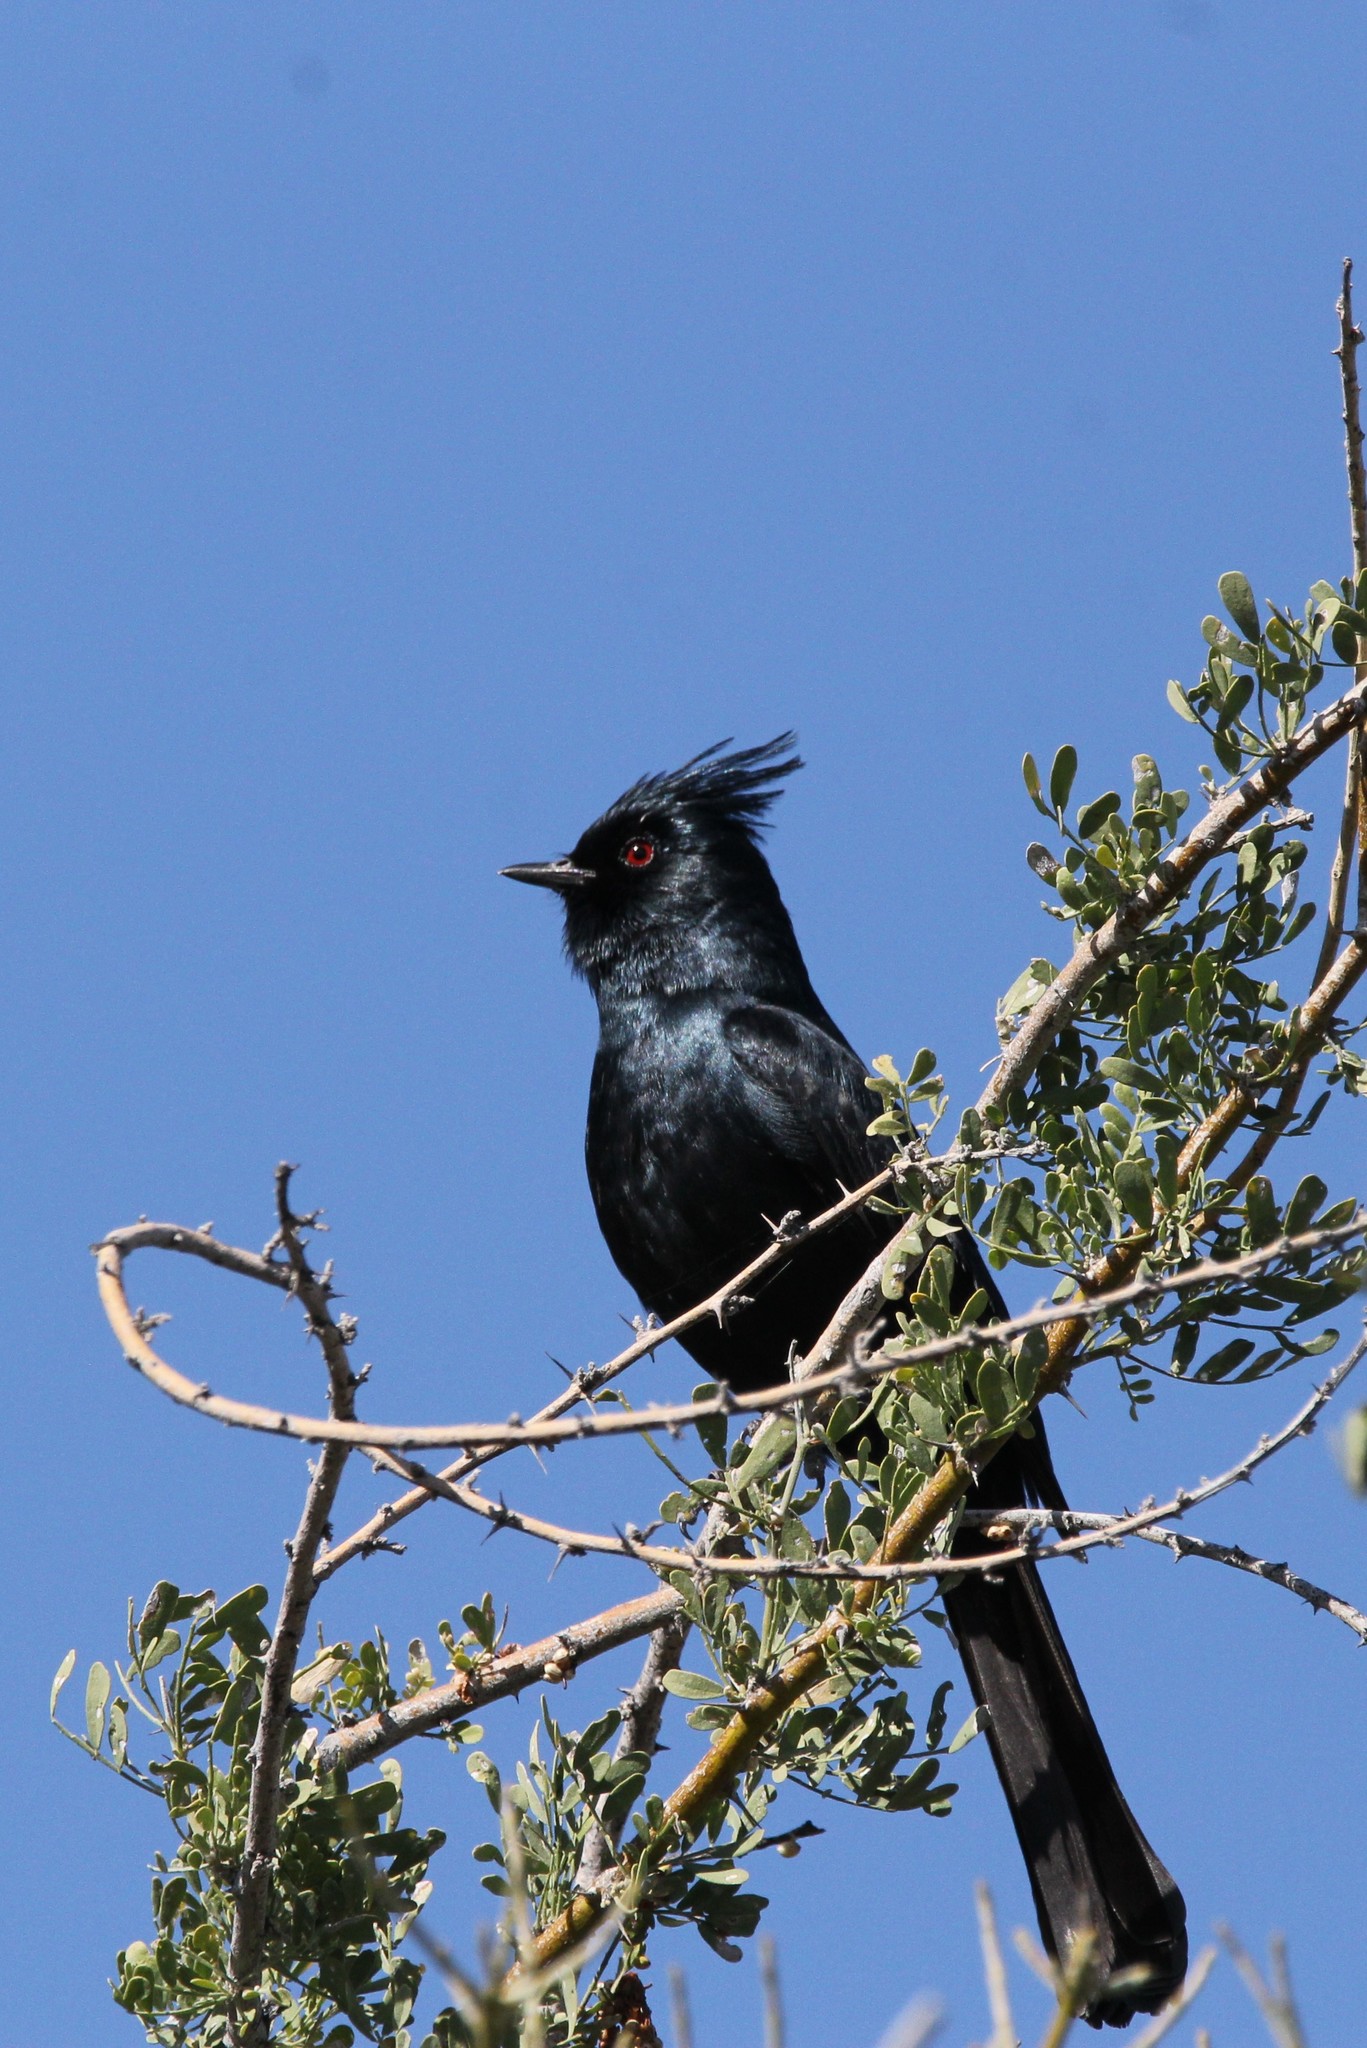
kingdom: Animalia
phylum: Chordata
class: Aves
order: Passeriformes
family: Ptilogonatidae
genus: Phainopepla
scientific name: Phainopepla nitens
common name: Phainopepla
